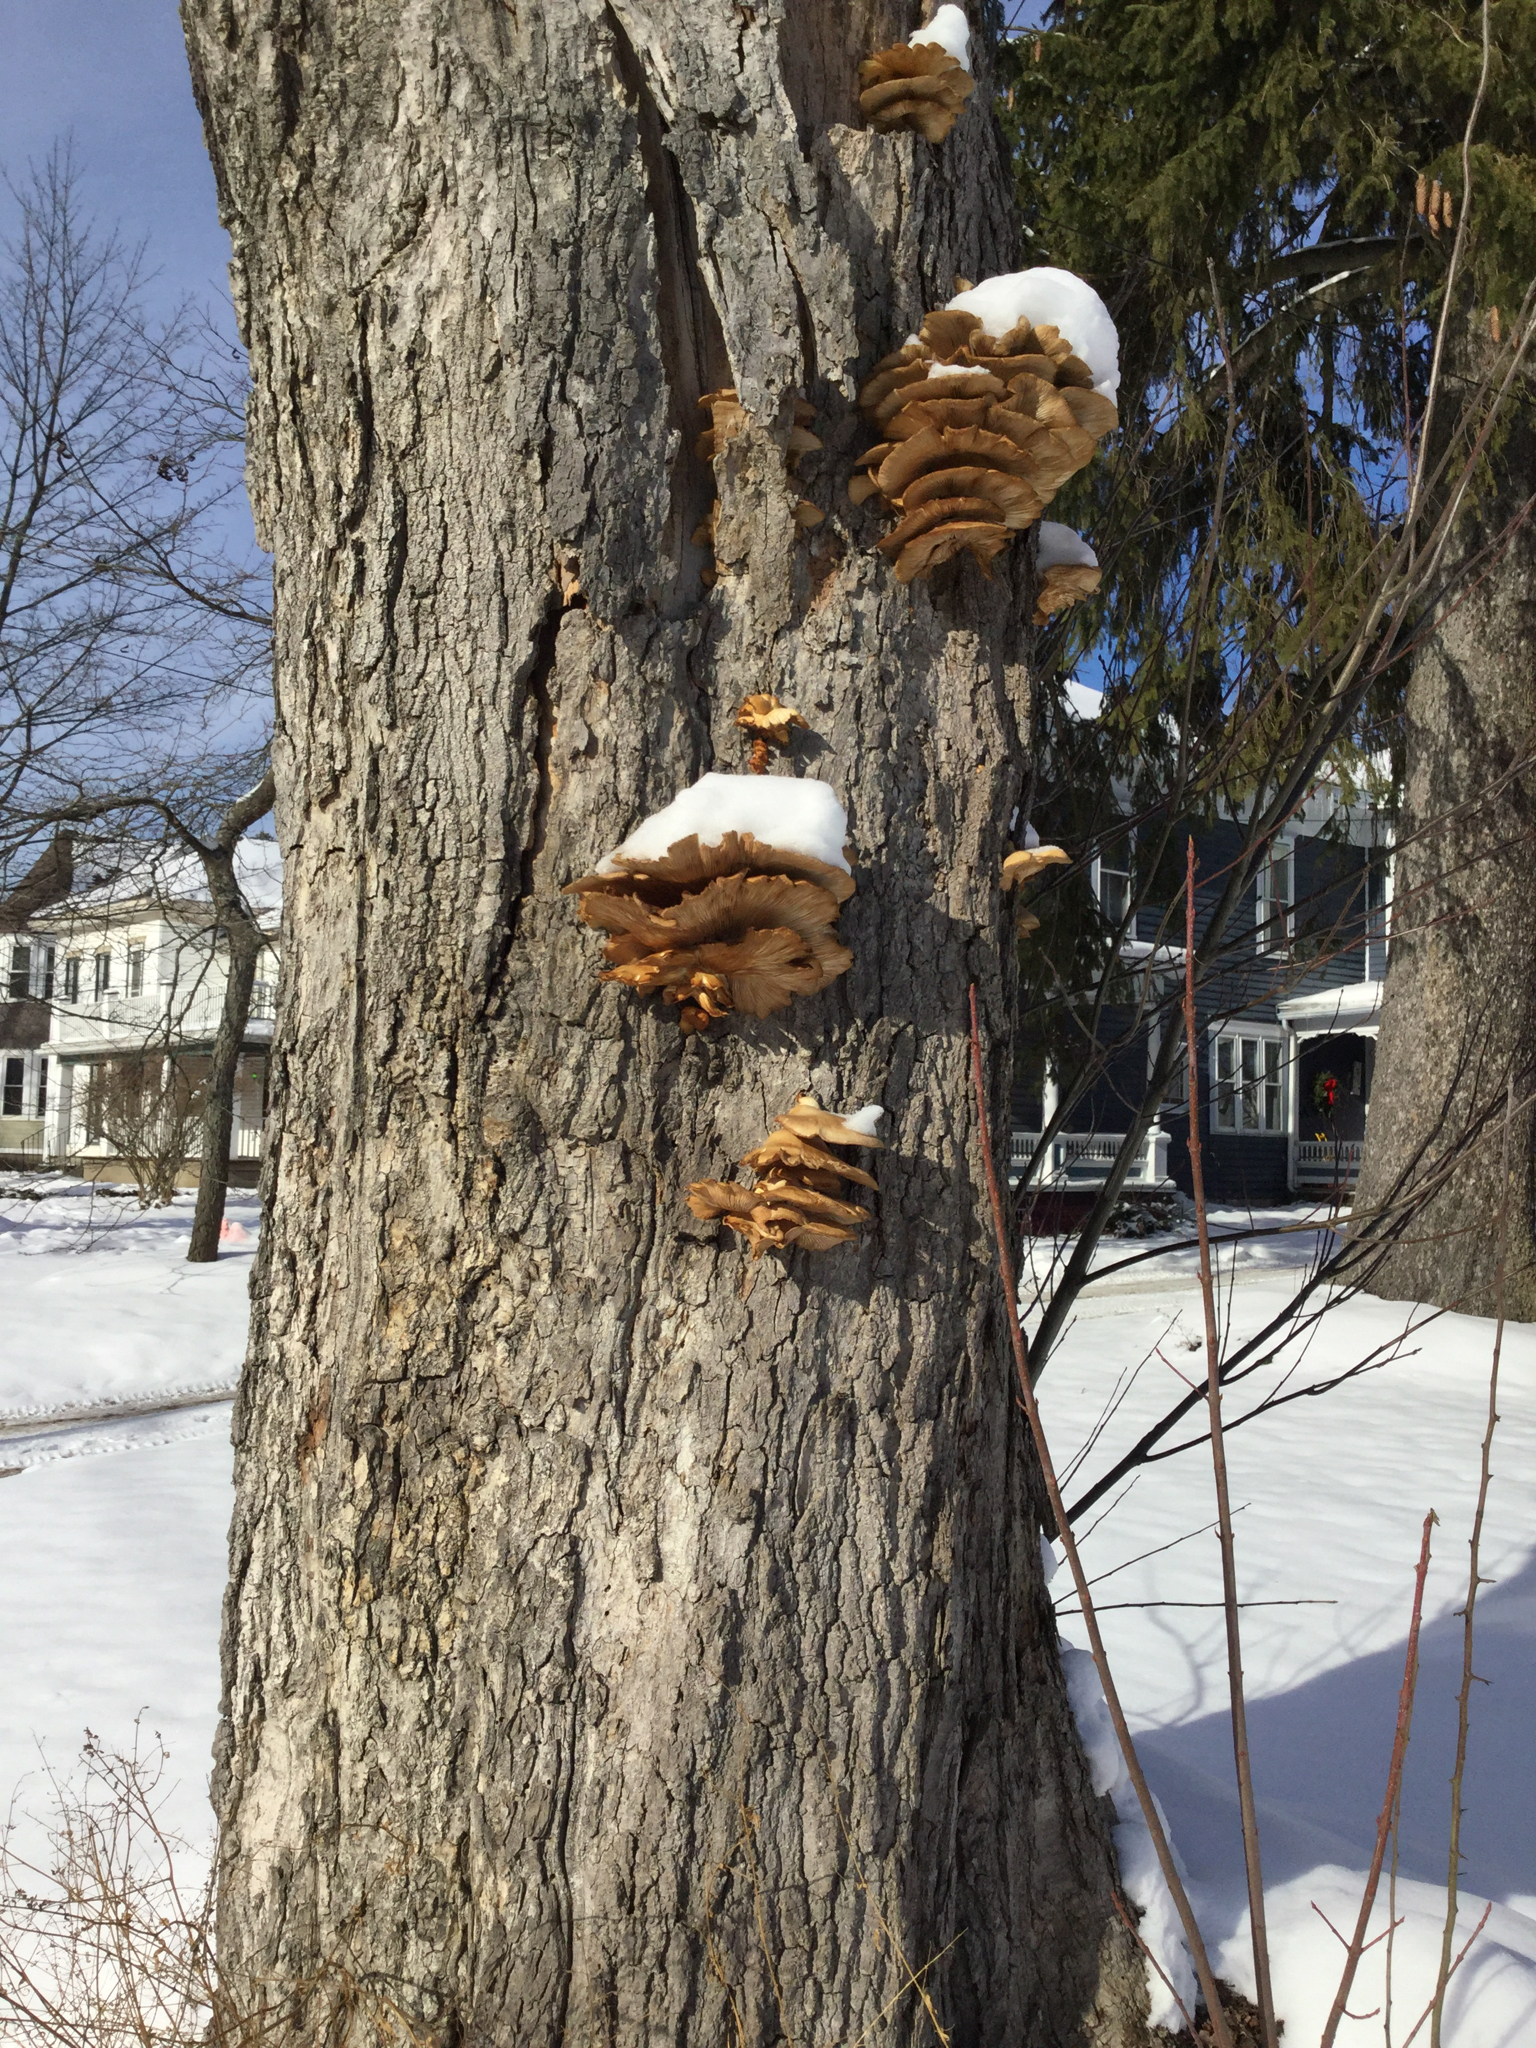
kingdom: Fungi
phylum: Basidiomycota
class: Agaricomycetes
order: Agaricales
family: Pleurotaceae
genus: Pleurotus
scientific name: Pleurotus ostreatus
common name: Oyster mushroom
